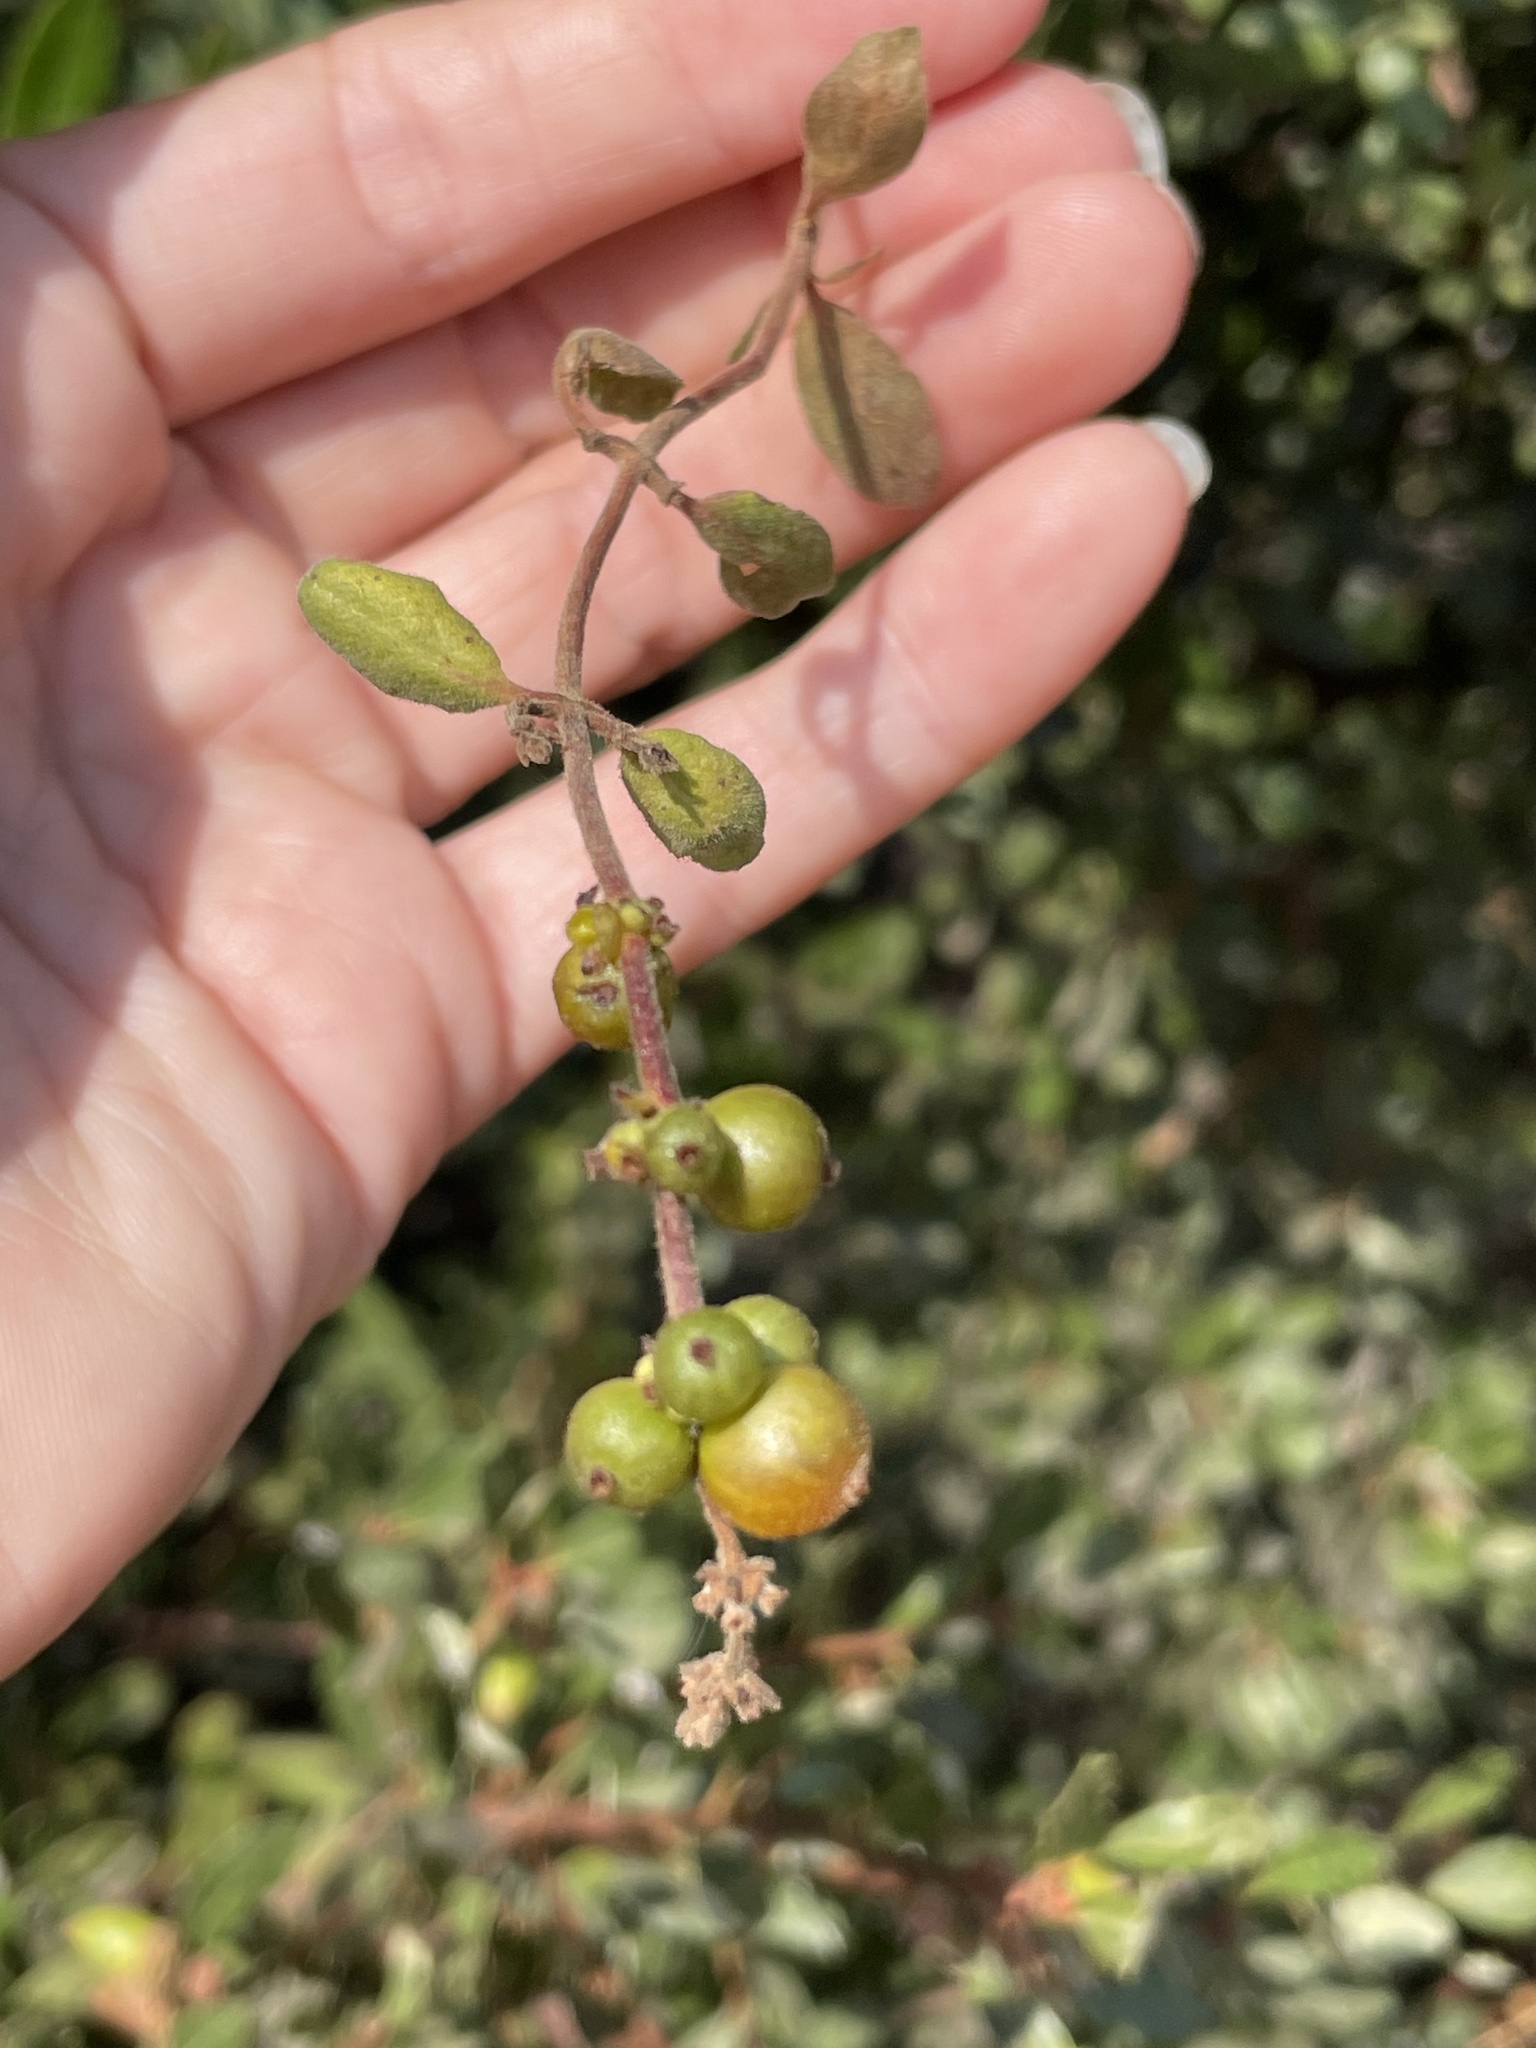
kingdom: Plantae
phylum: Tracheophyta
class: Magnoliopsida
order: Dipsacales
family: Caprifoliaceae
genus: Lonicera
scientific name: Lonicera subspicata
